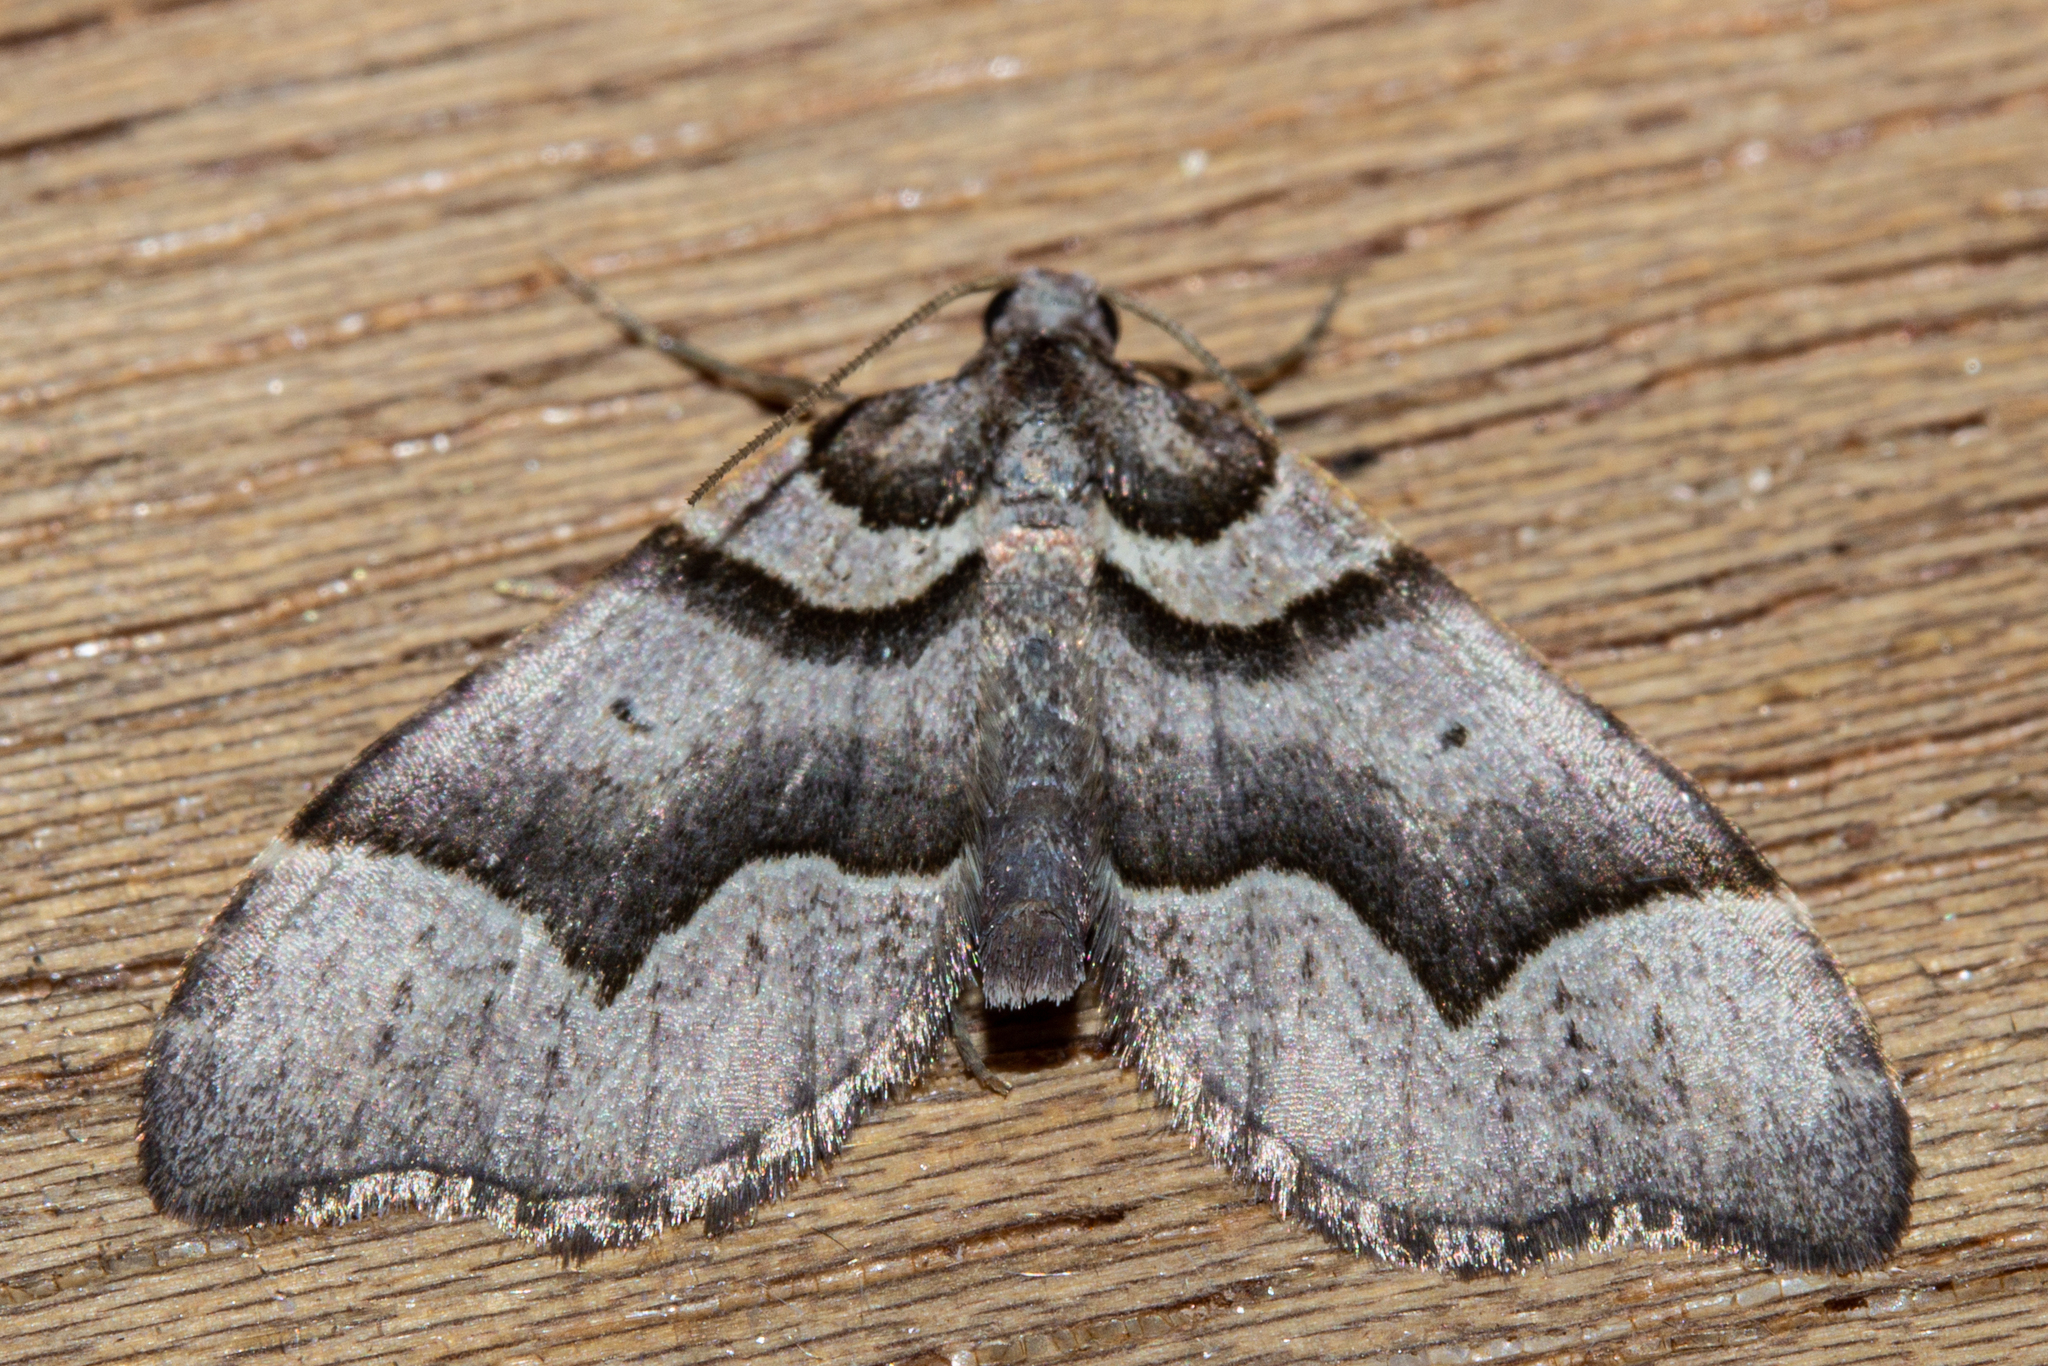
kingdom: Animalia
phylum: Arthropoda
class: Insecta
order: Lepidoptera
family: Geometridae
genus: Helastia
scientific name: Helastia triphragma
